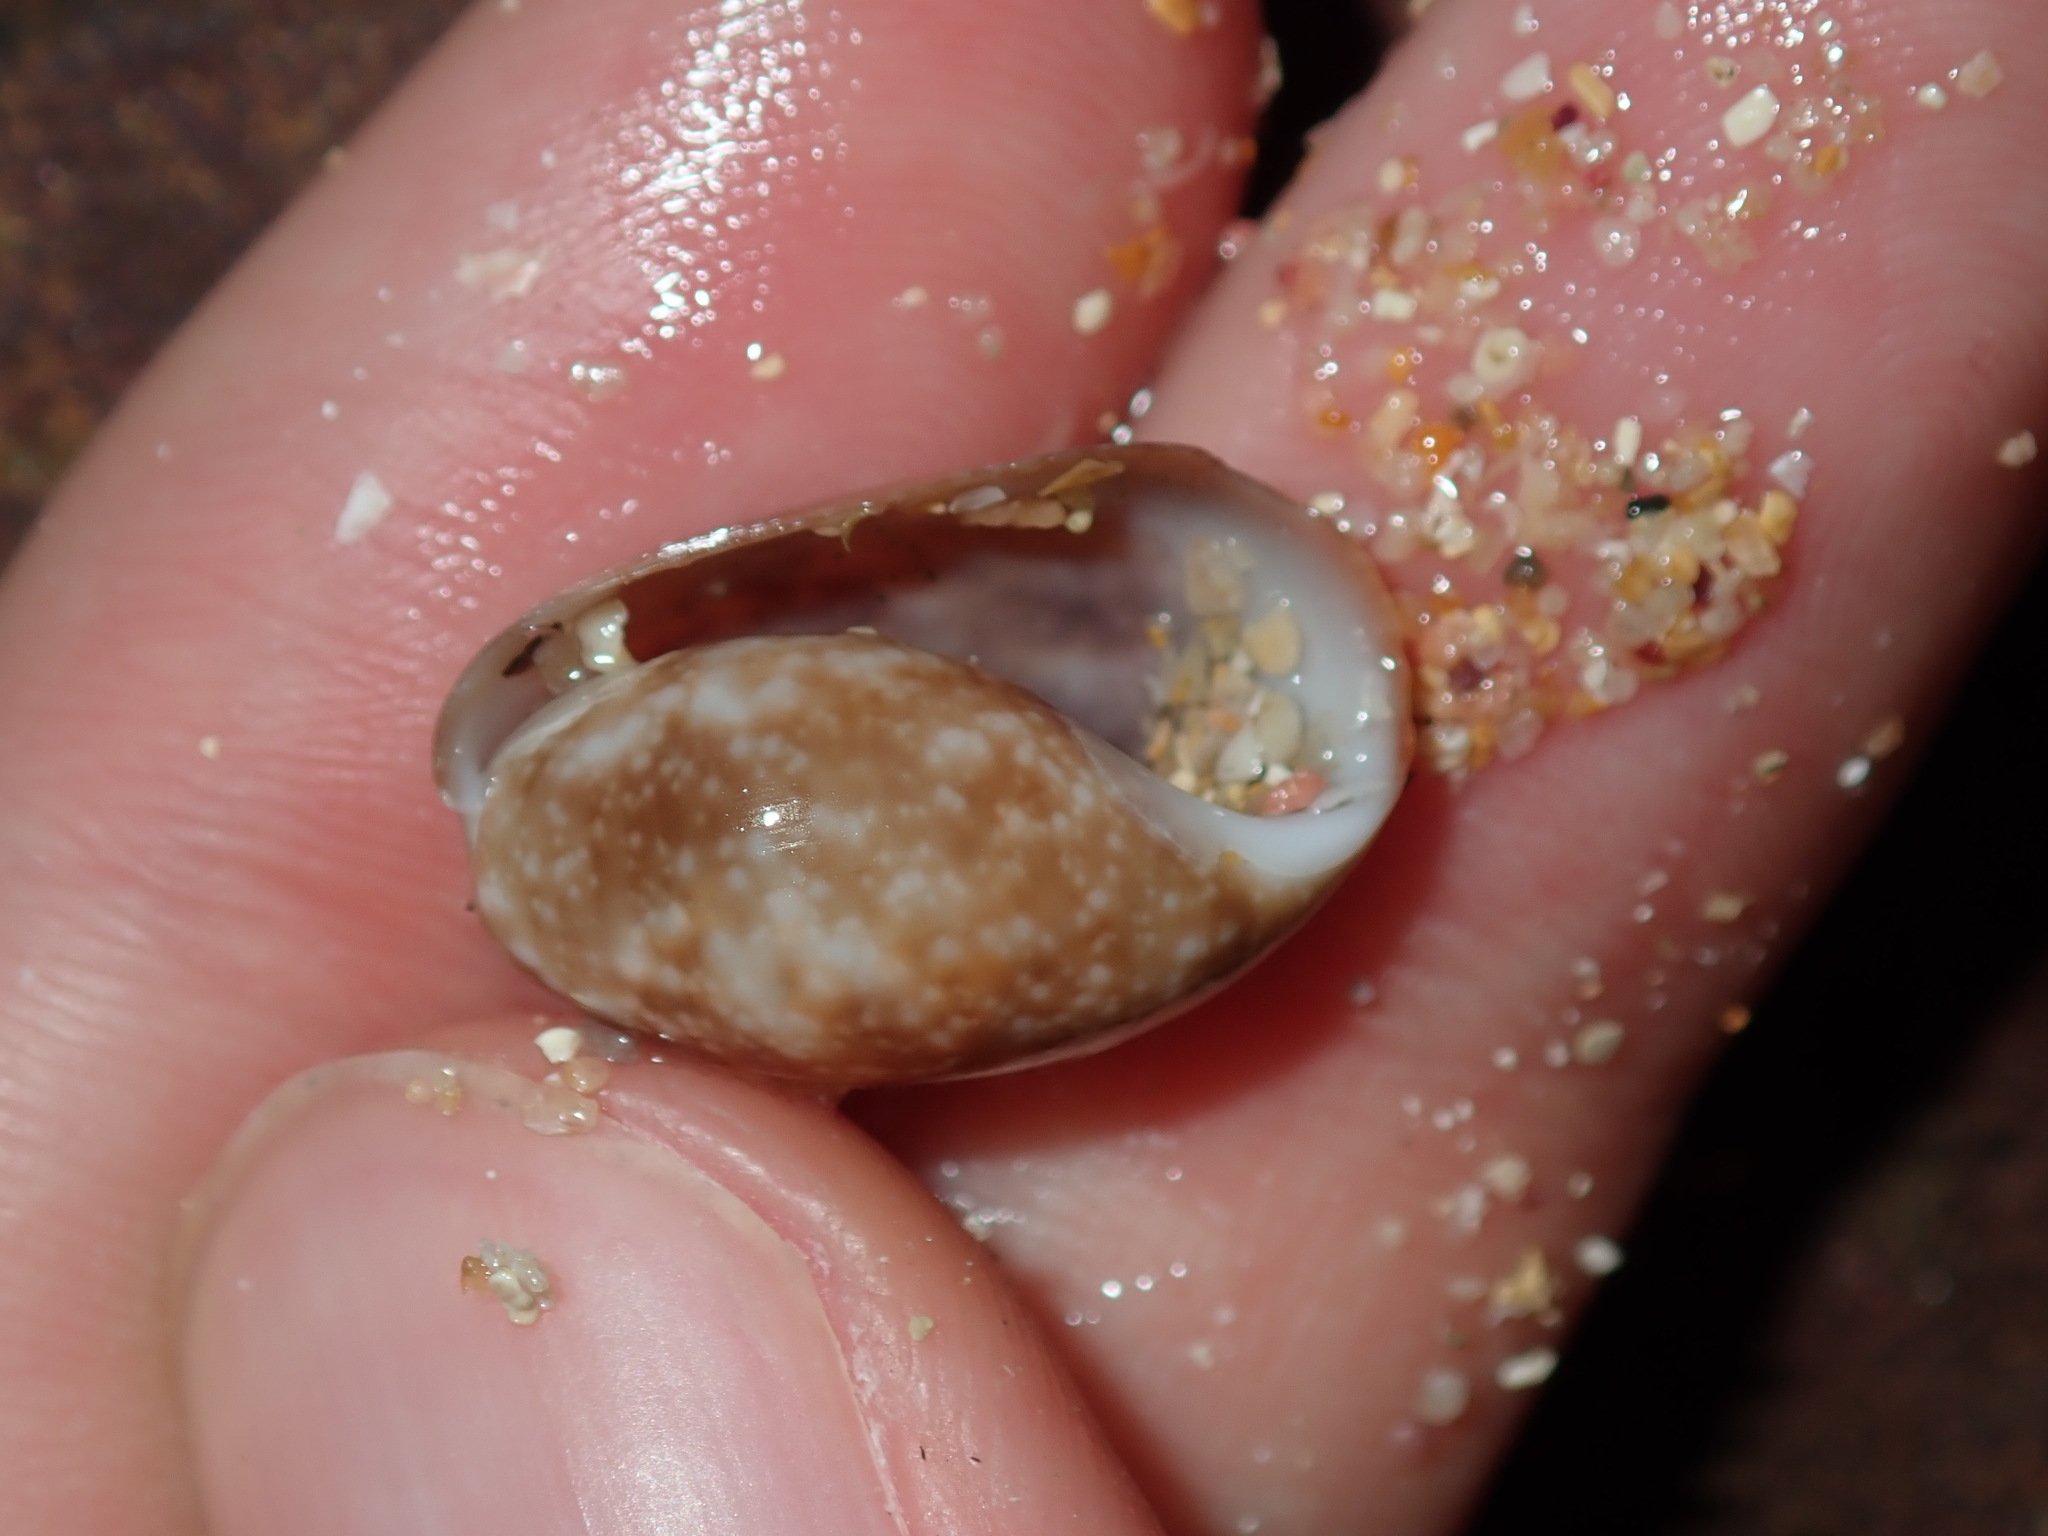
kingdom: Animalia
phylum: Mollusca
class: Gastropoda
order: Cephalaspidea
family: Bullidae
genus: Bulla
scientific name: Bulla mabillei
